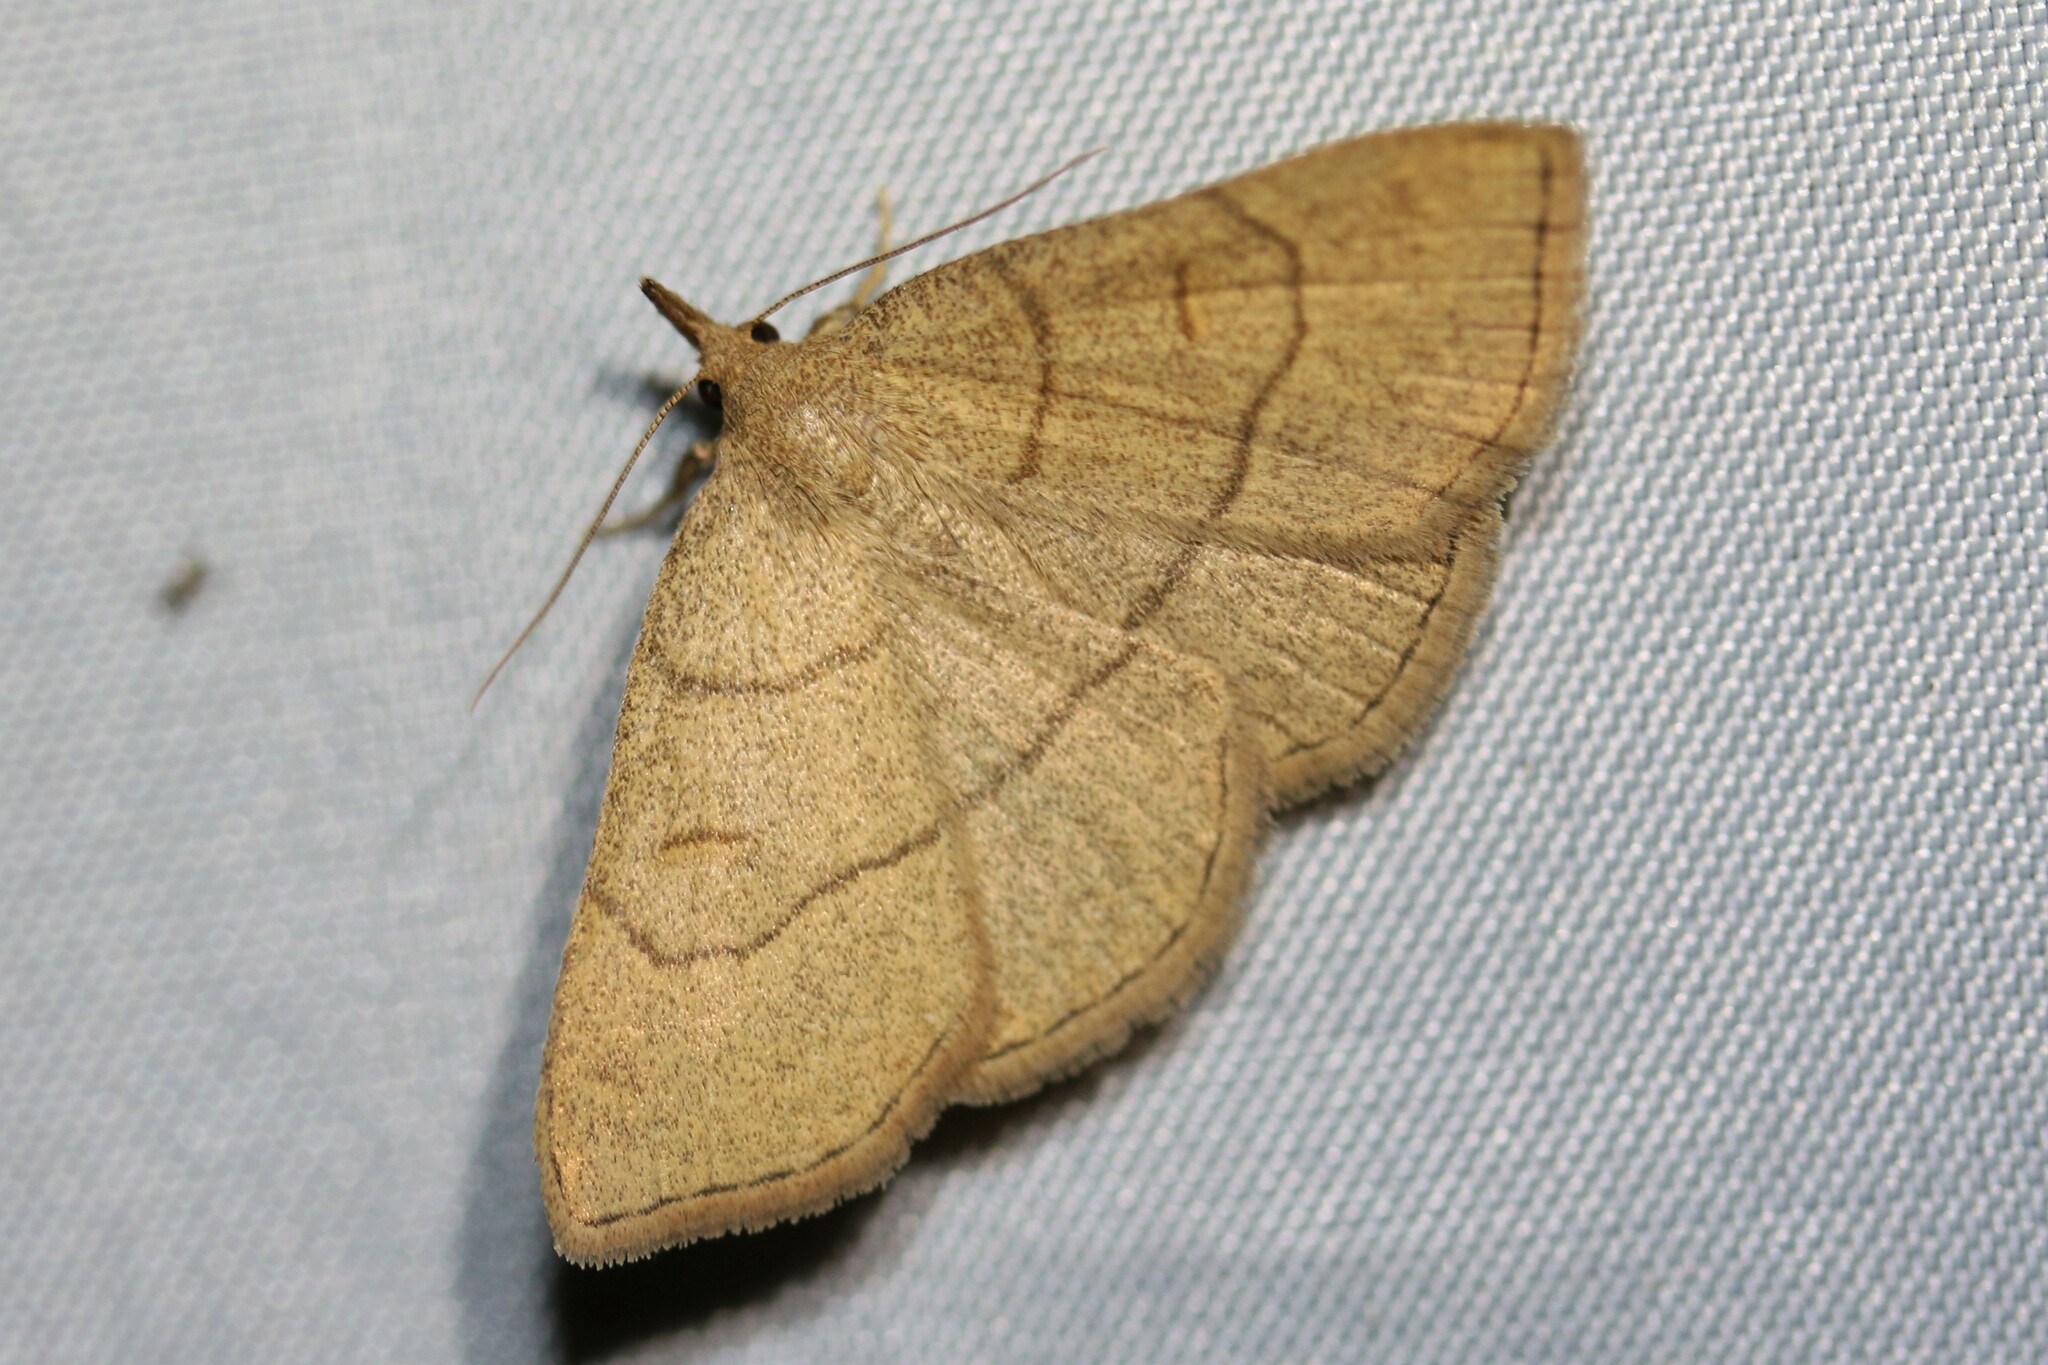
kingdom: Animalia
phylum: Arthropoda
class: Insecta
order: Lepidoptera
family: Erebidae
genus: Paracolax
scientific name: Paracolax tristalis
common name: Clay fan-foot
